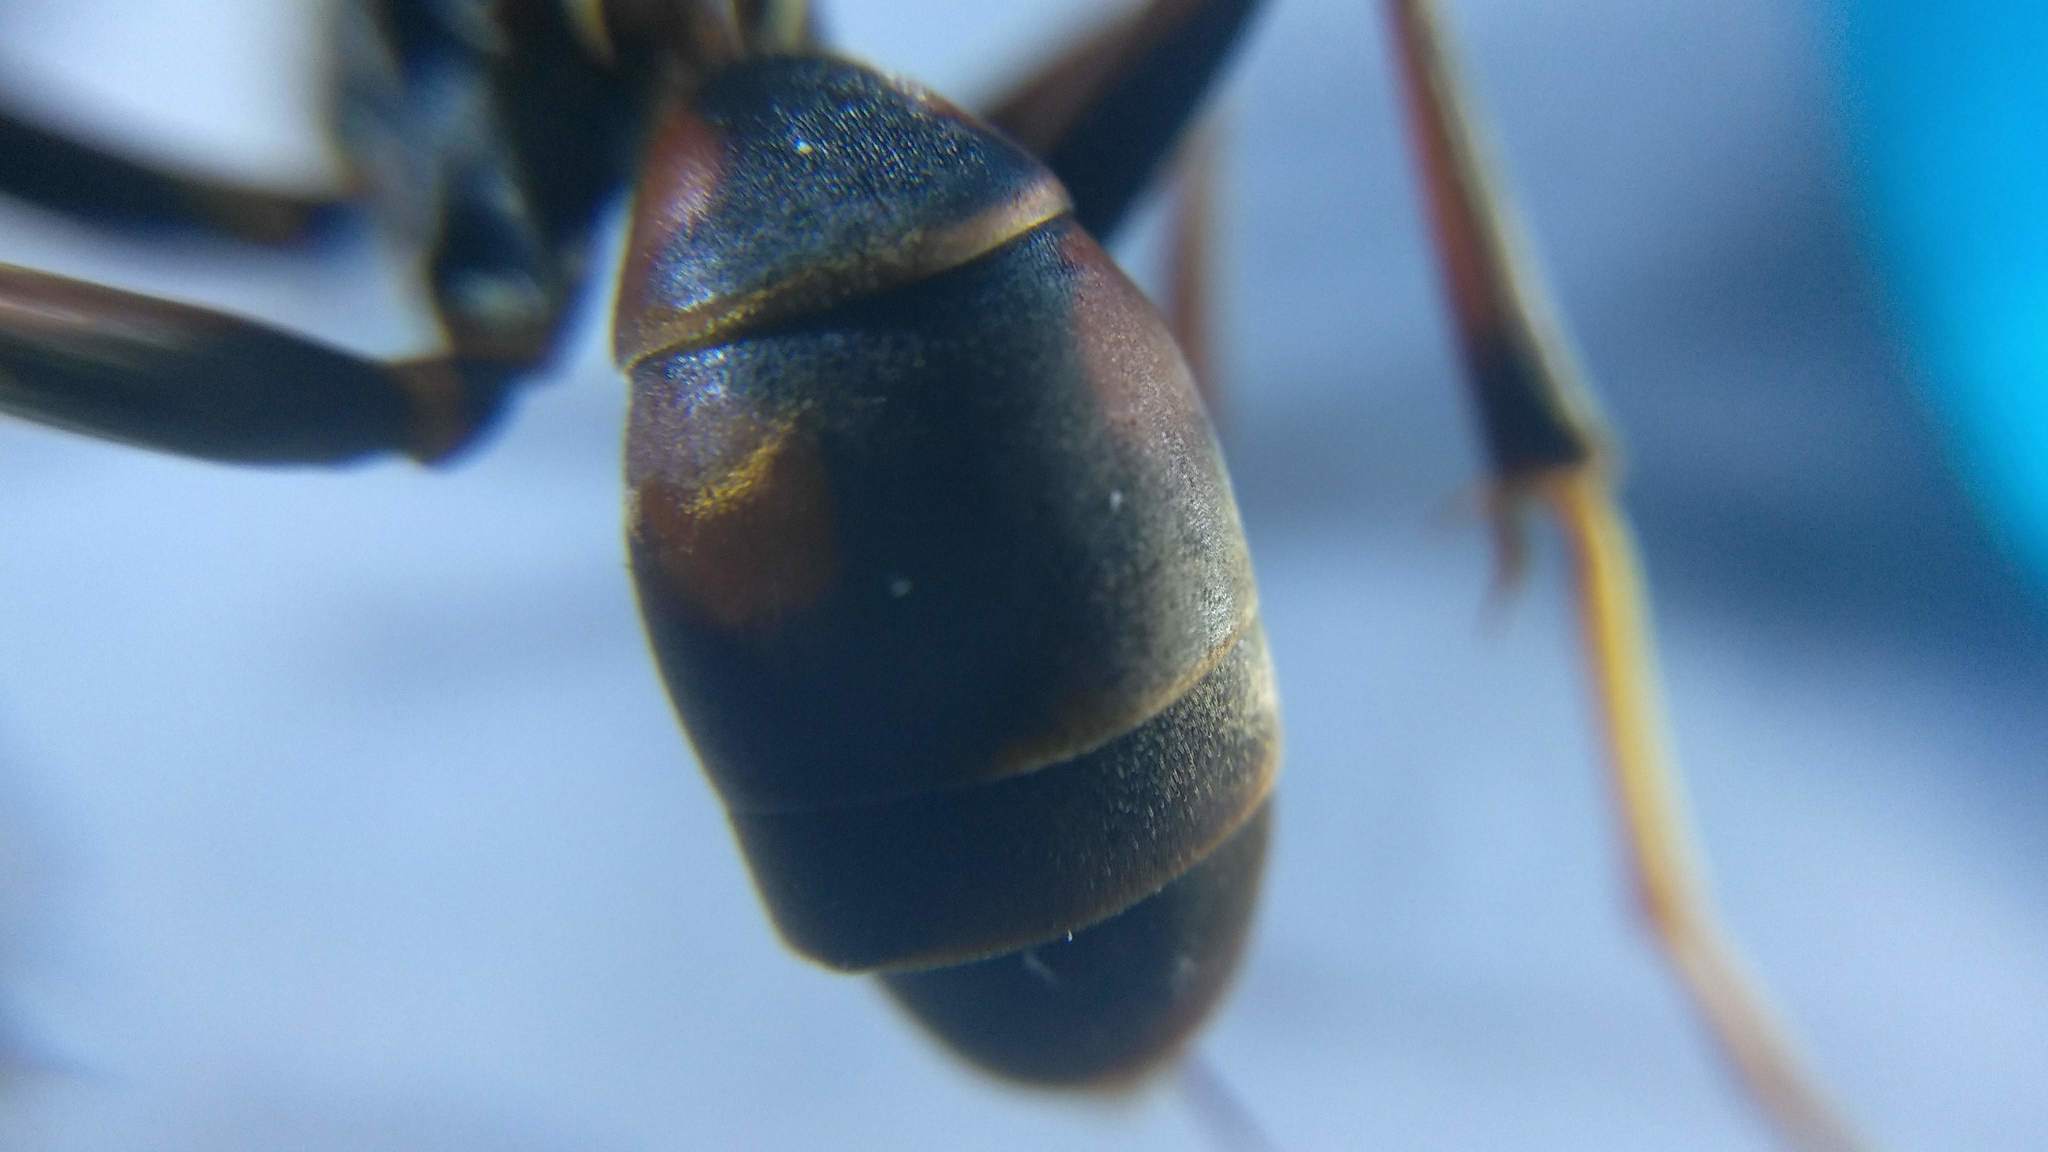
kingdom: Animalia
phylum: Arthropoda
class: Insecta
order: Strepsiptera
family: Xenidae
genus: Xenos
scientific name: Xenos pecki
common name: Twisted wing parasite
